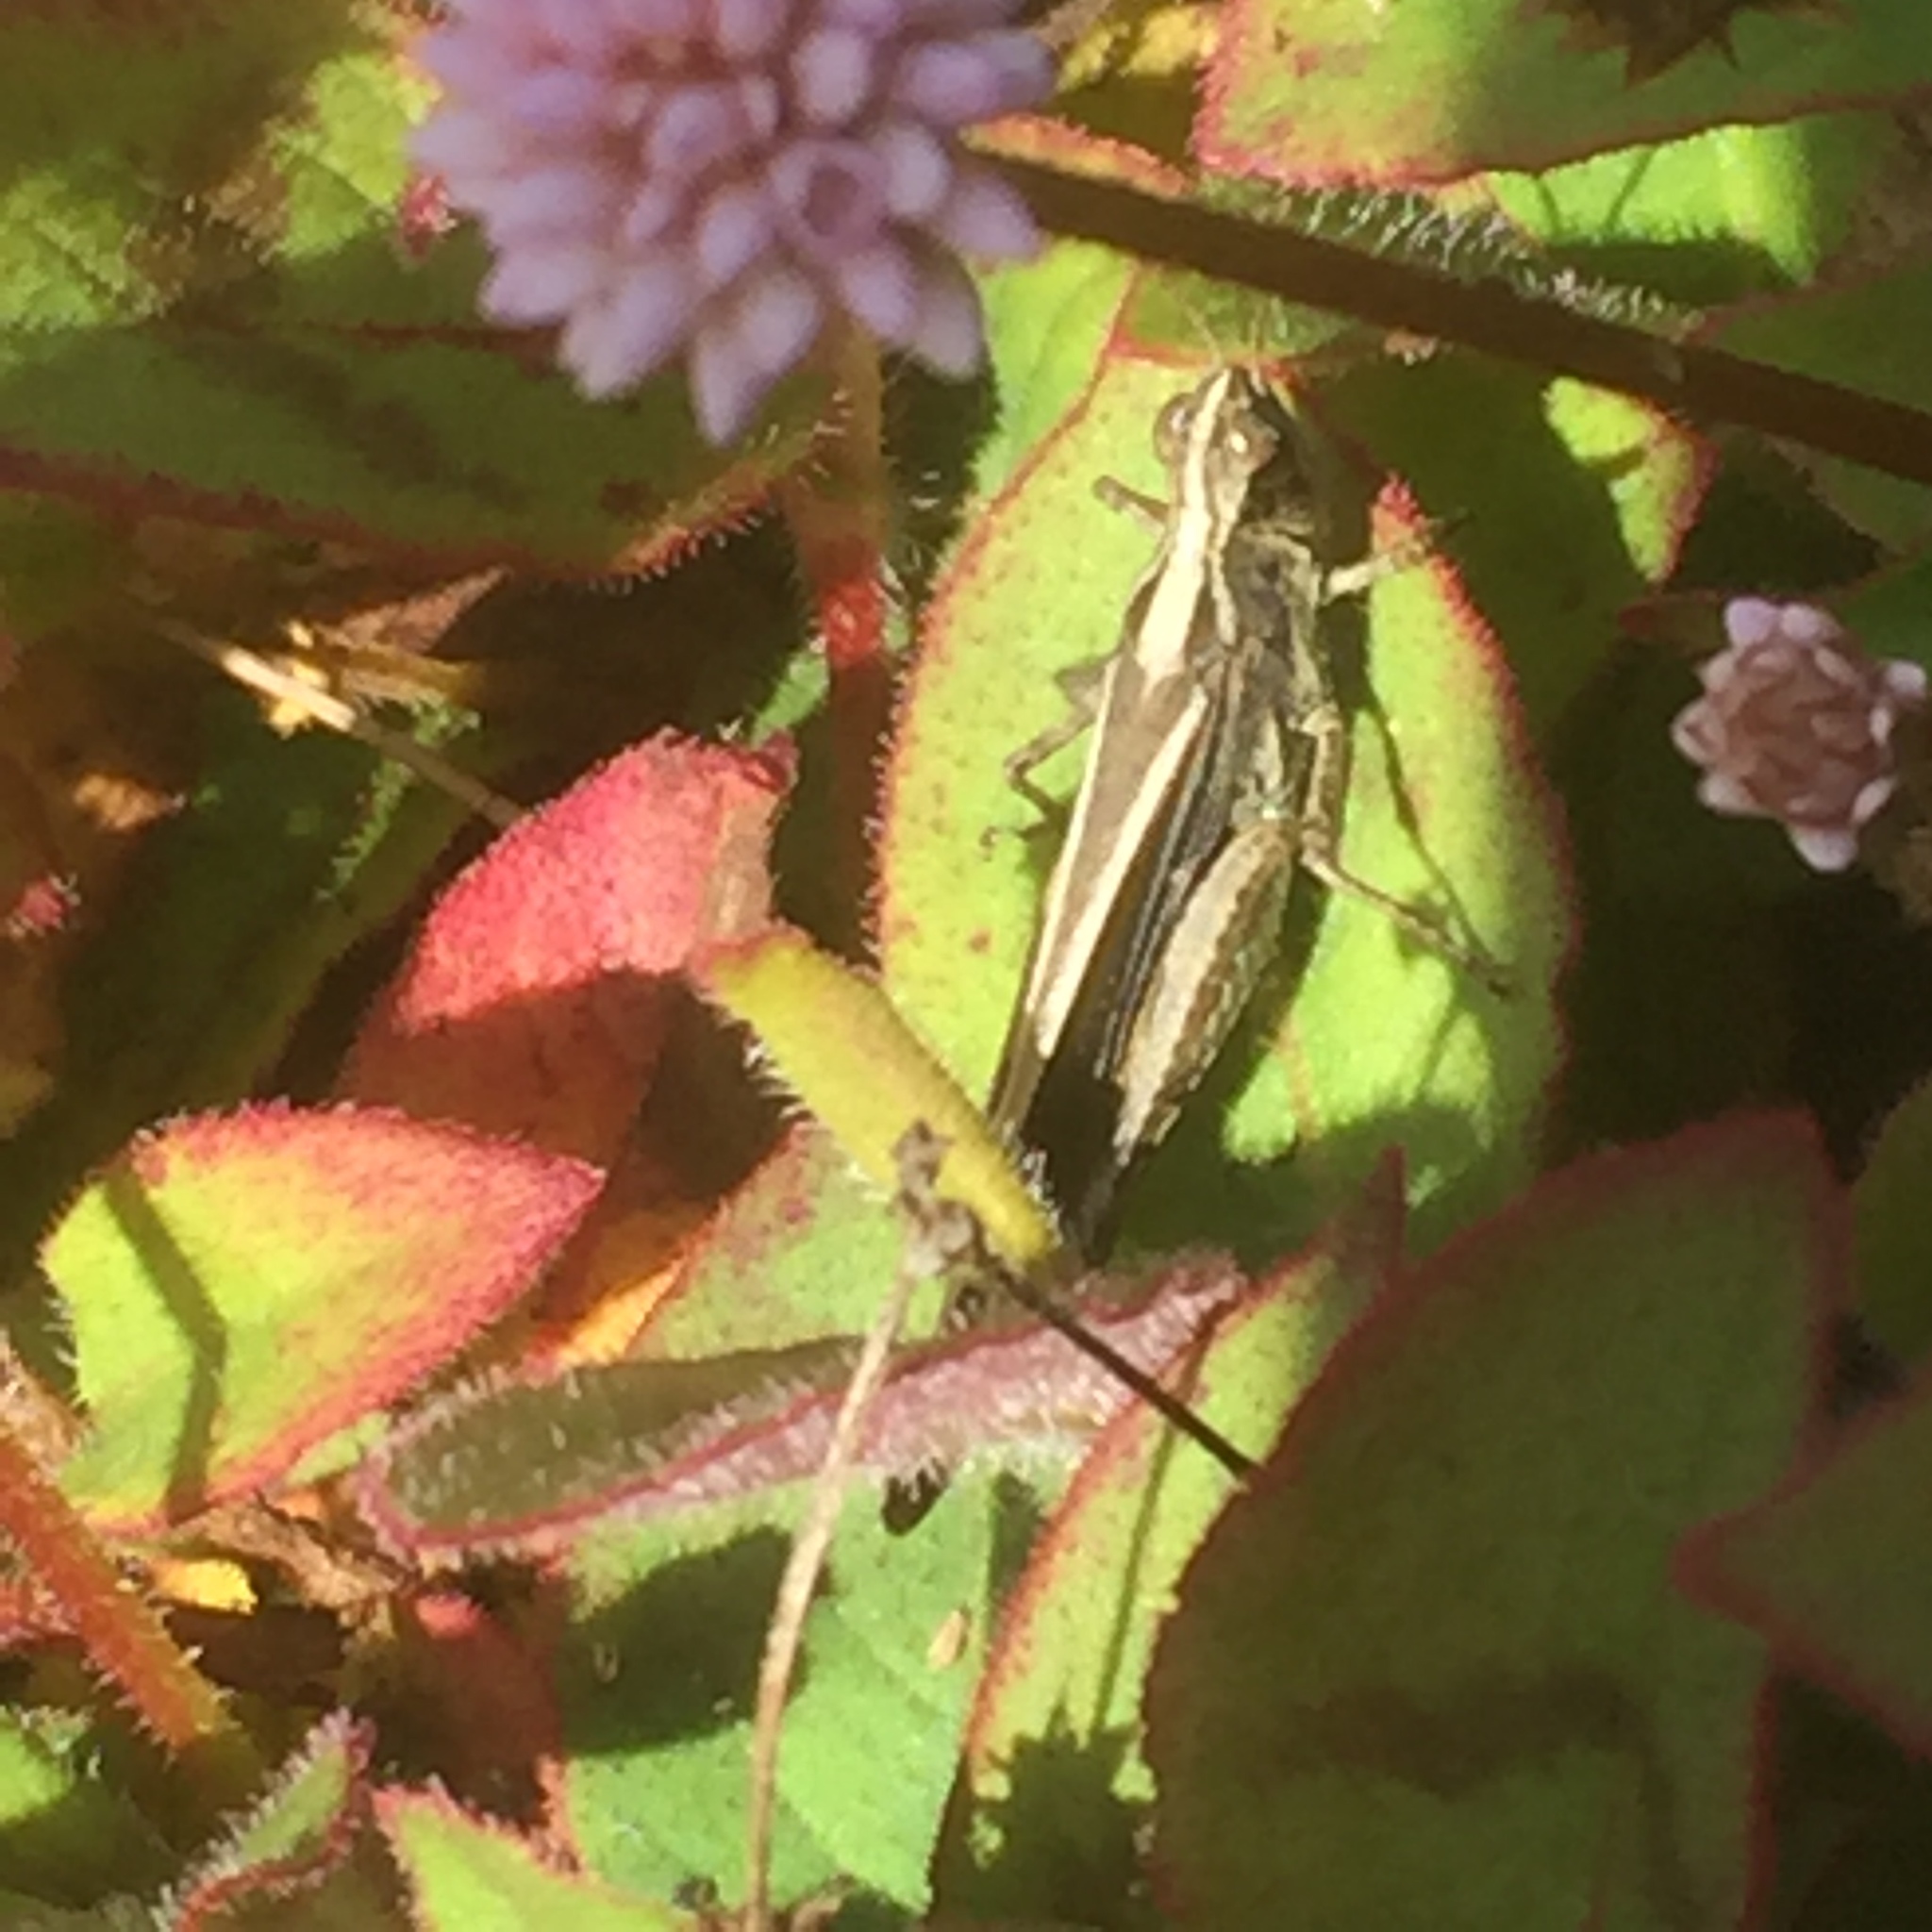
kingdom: Animalia
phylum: Arthropoda
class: Insecta
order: Orthoptera
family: Acrididae
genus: Aiolopus
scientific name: Aiolopus thalassinus
